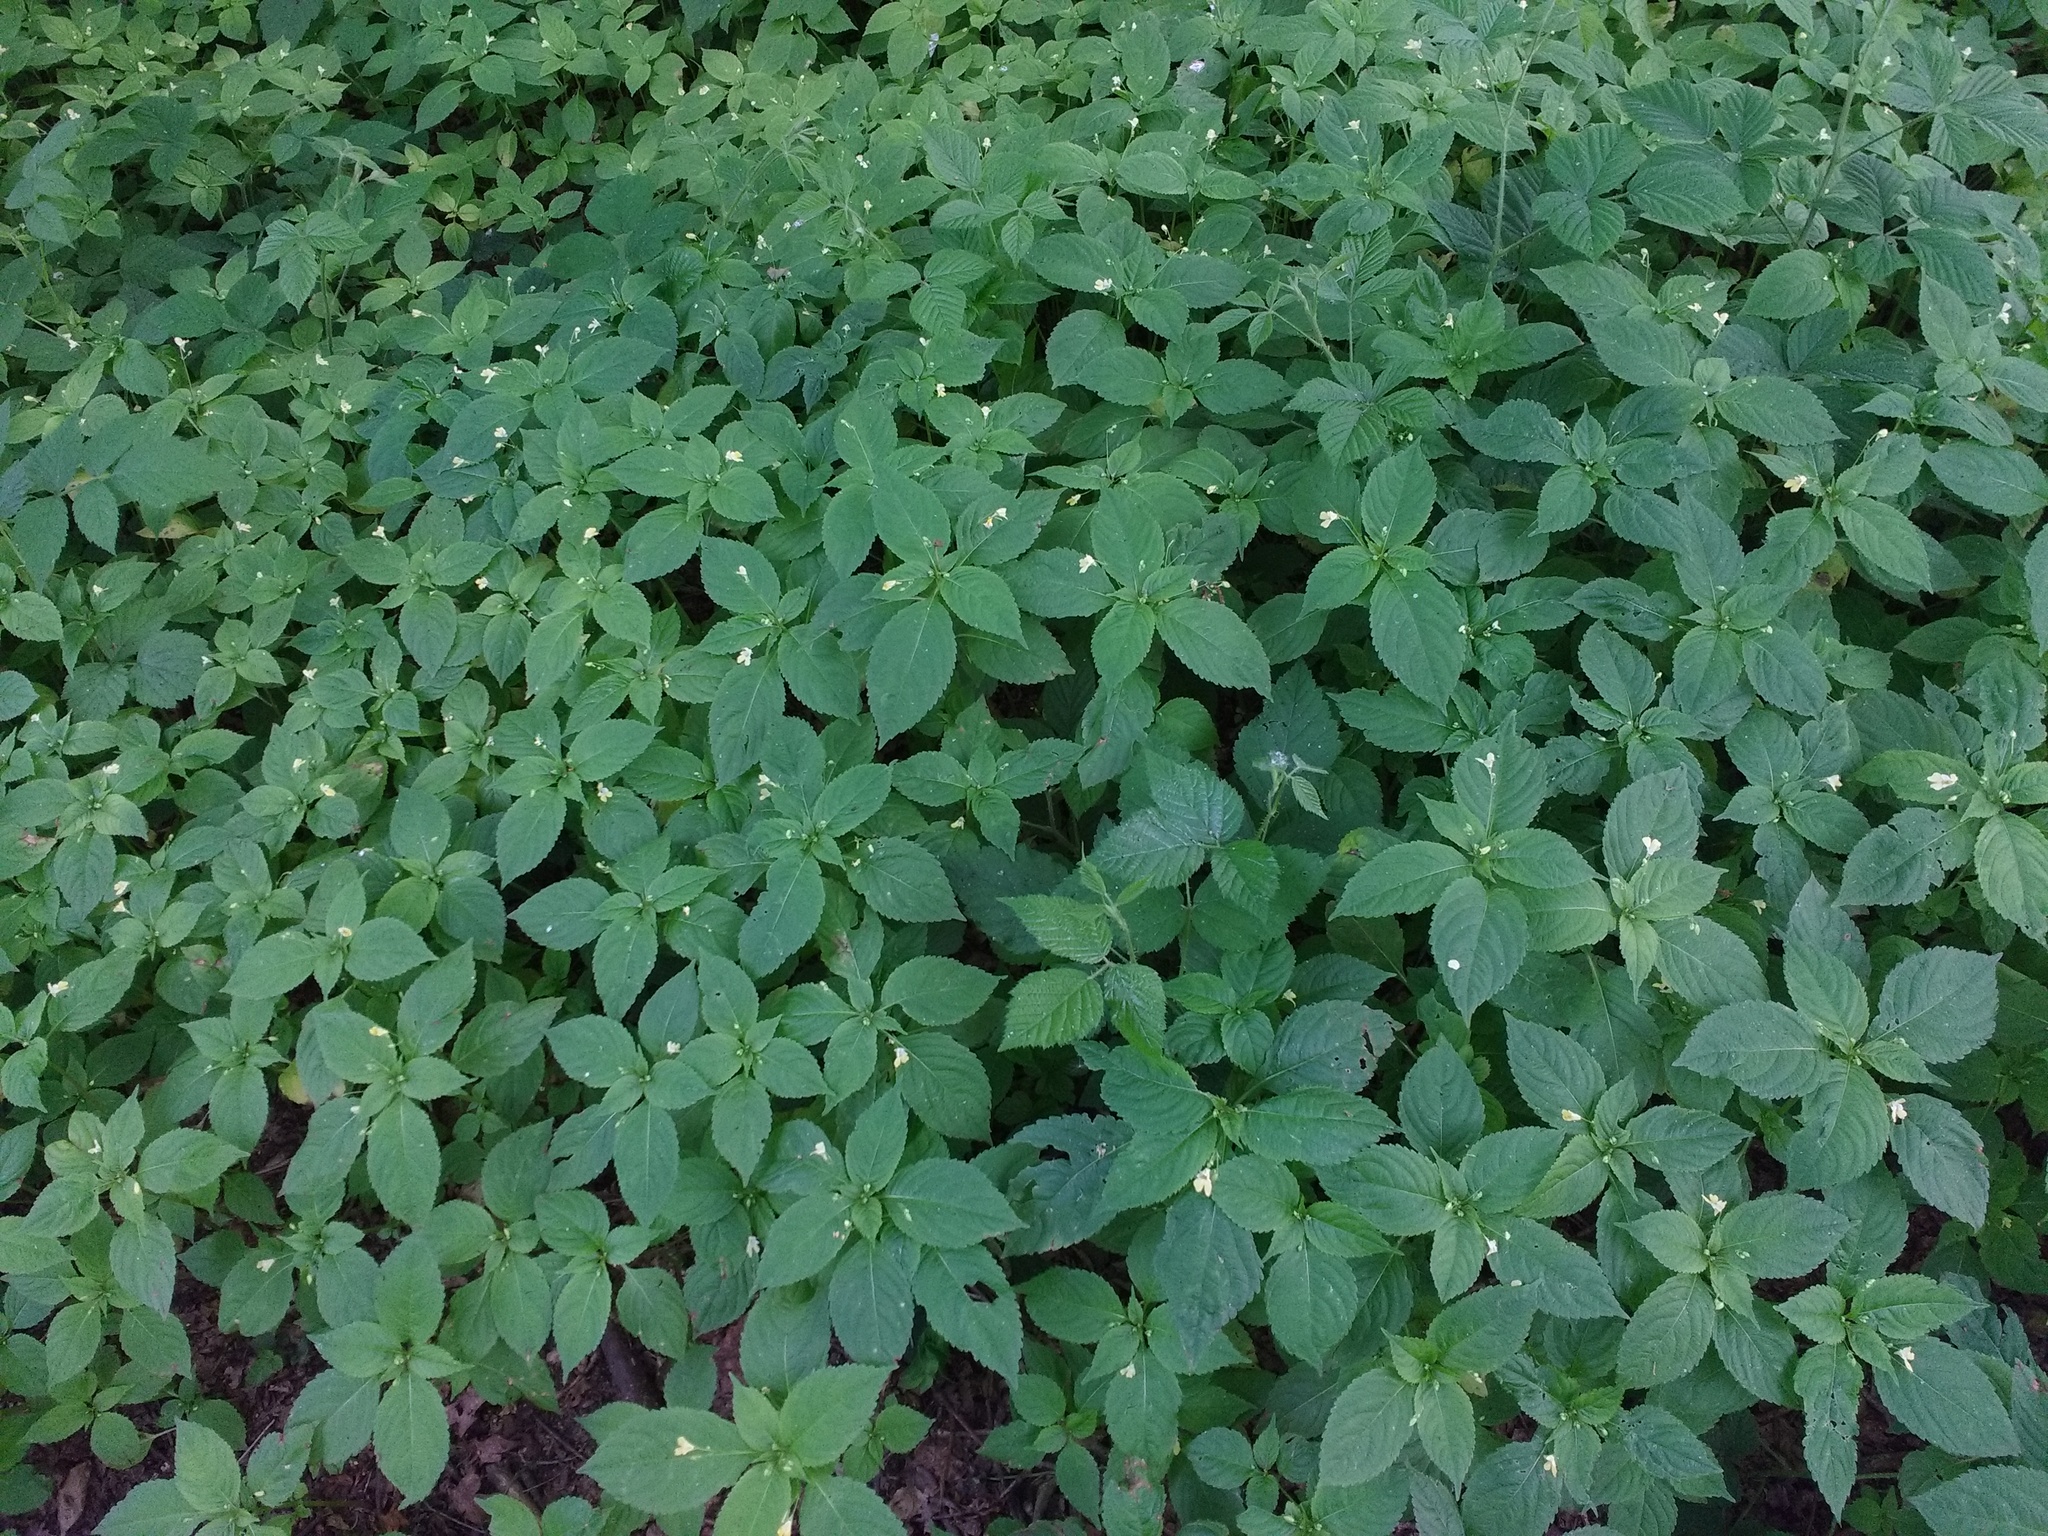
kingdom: Plantae
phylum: Tracheophyta
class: Magnoliopsida
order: Ericales
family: Balsaminaceae
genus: Impatiens
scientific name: Impatiens parviflora
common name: Small balsam
